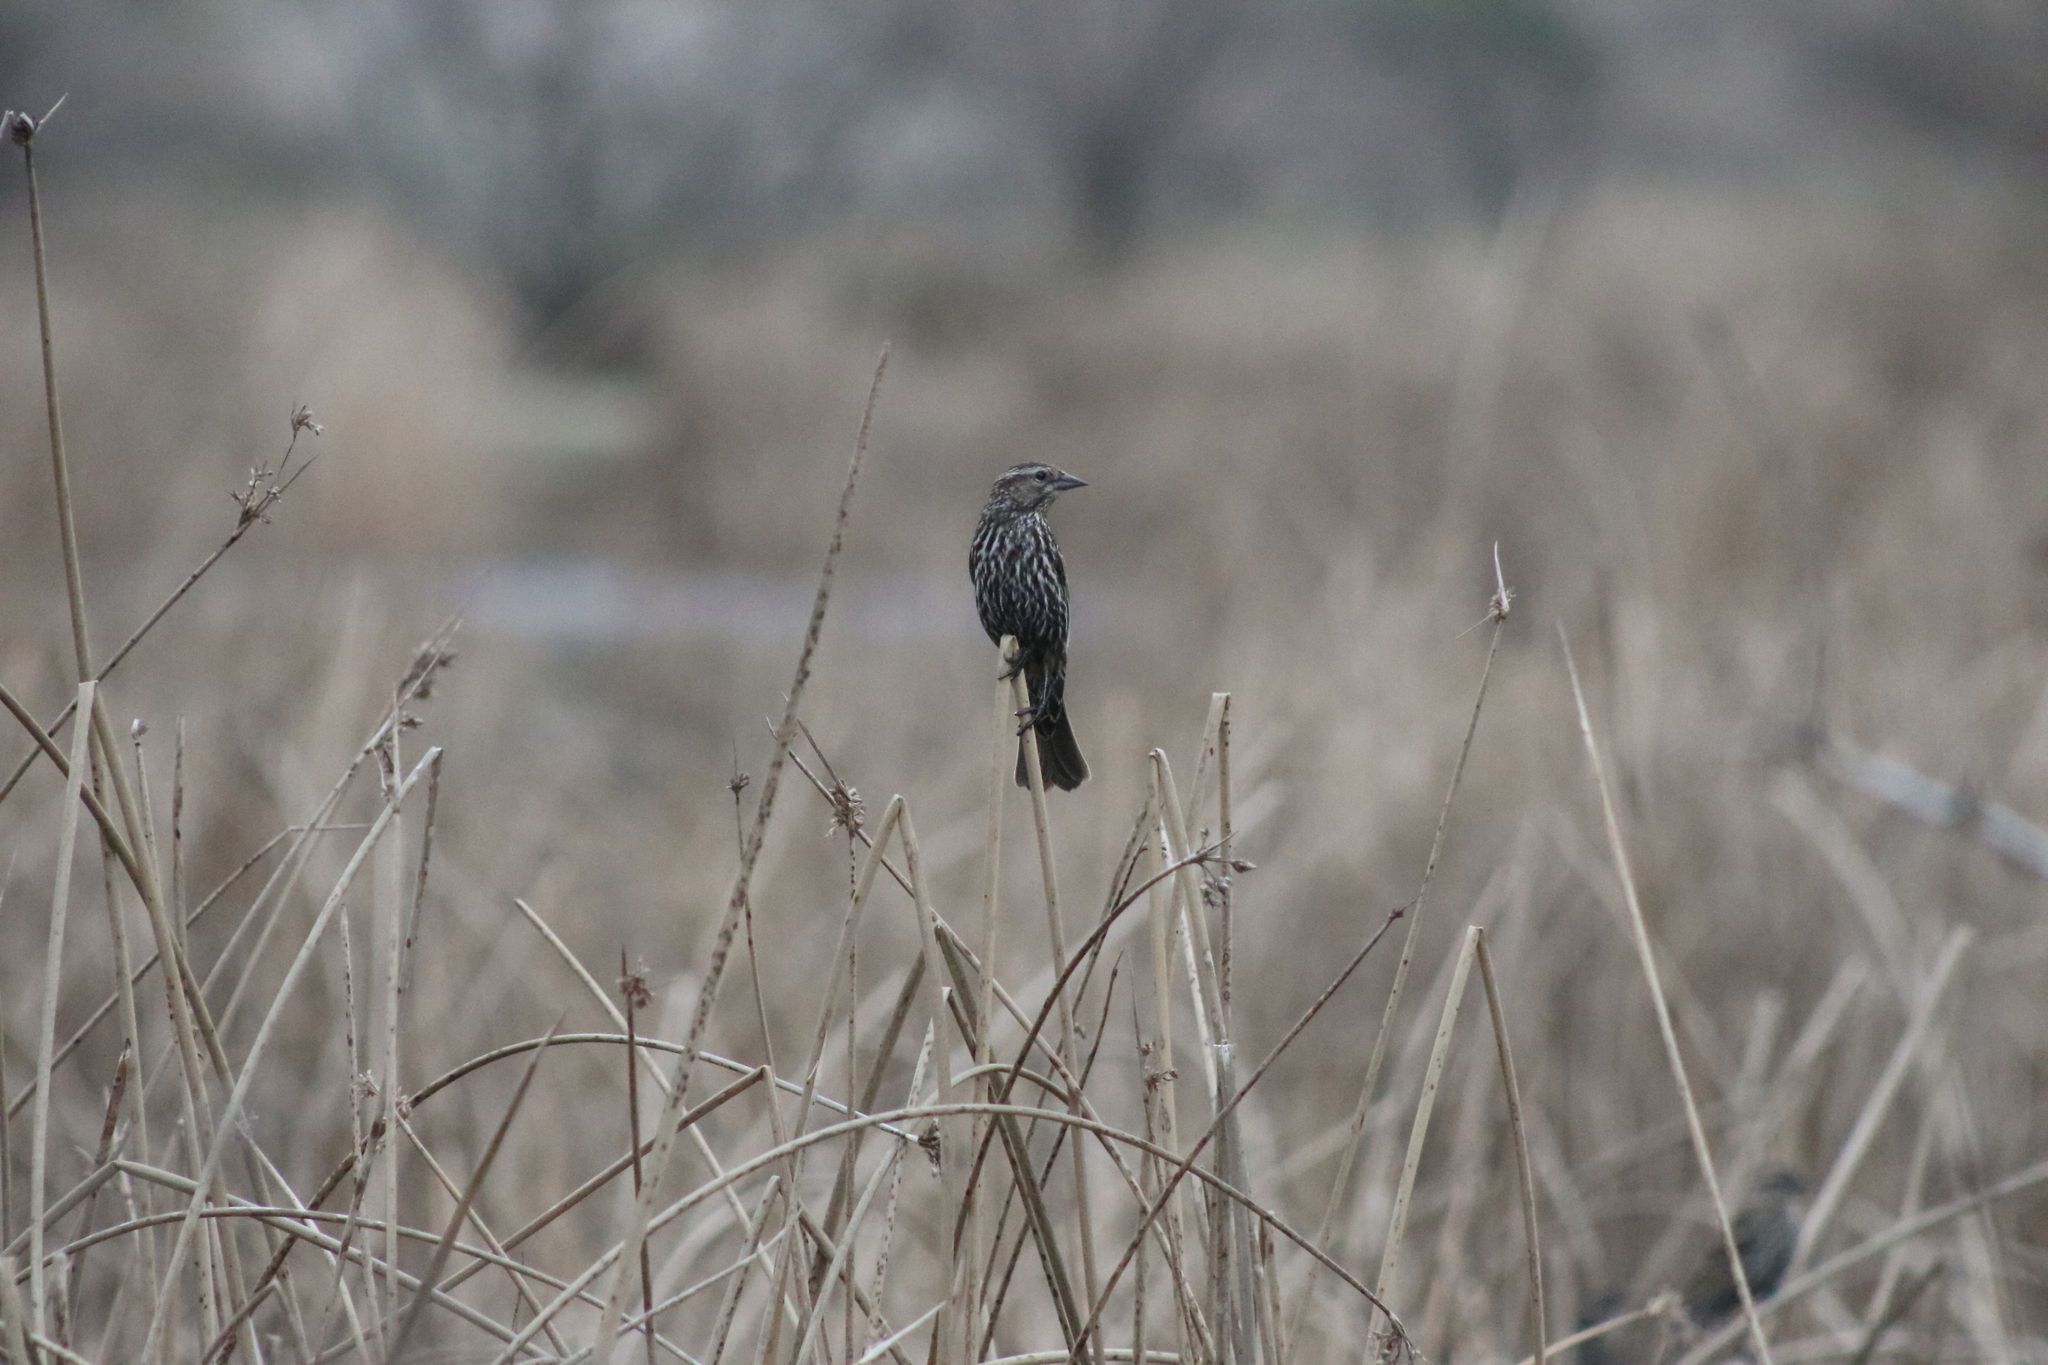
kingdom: Animalia
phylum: Chordata
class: Aves
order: Passeriformes
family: Icteridae
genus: Agelaius
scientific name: Agelaius phoeniceus
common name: Red-winged blackbird
